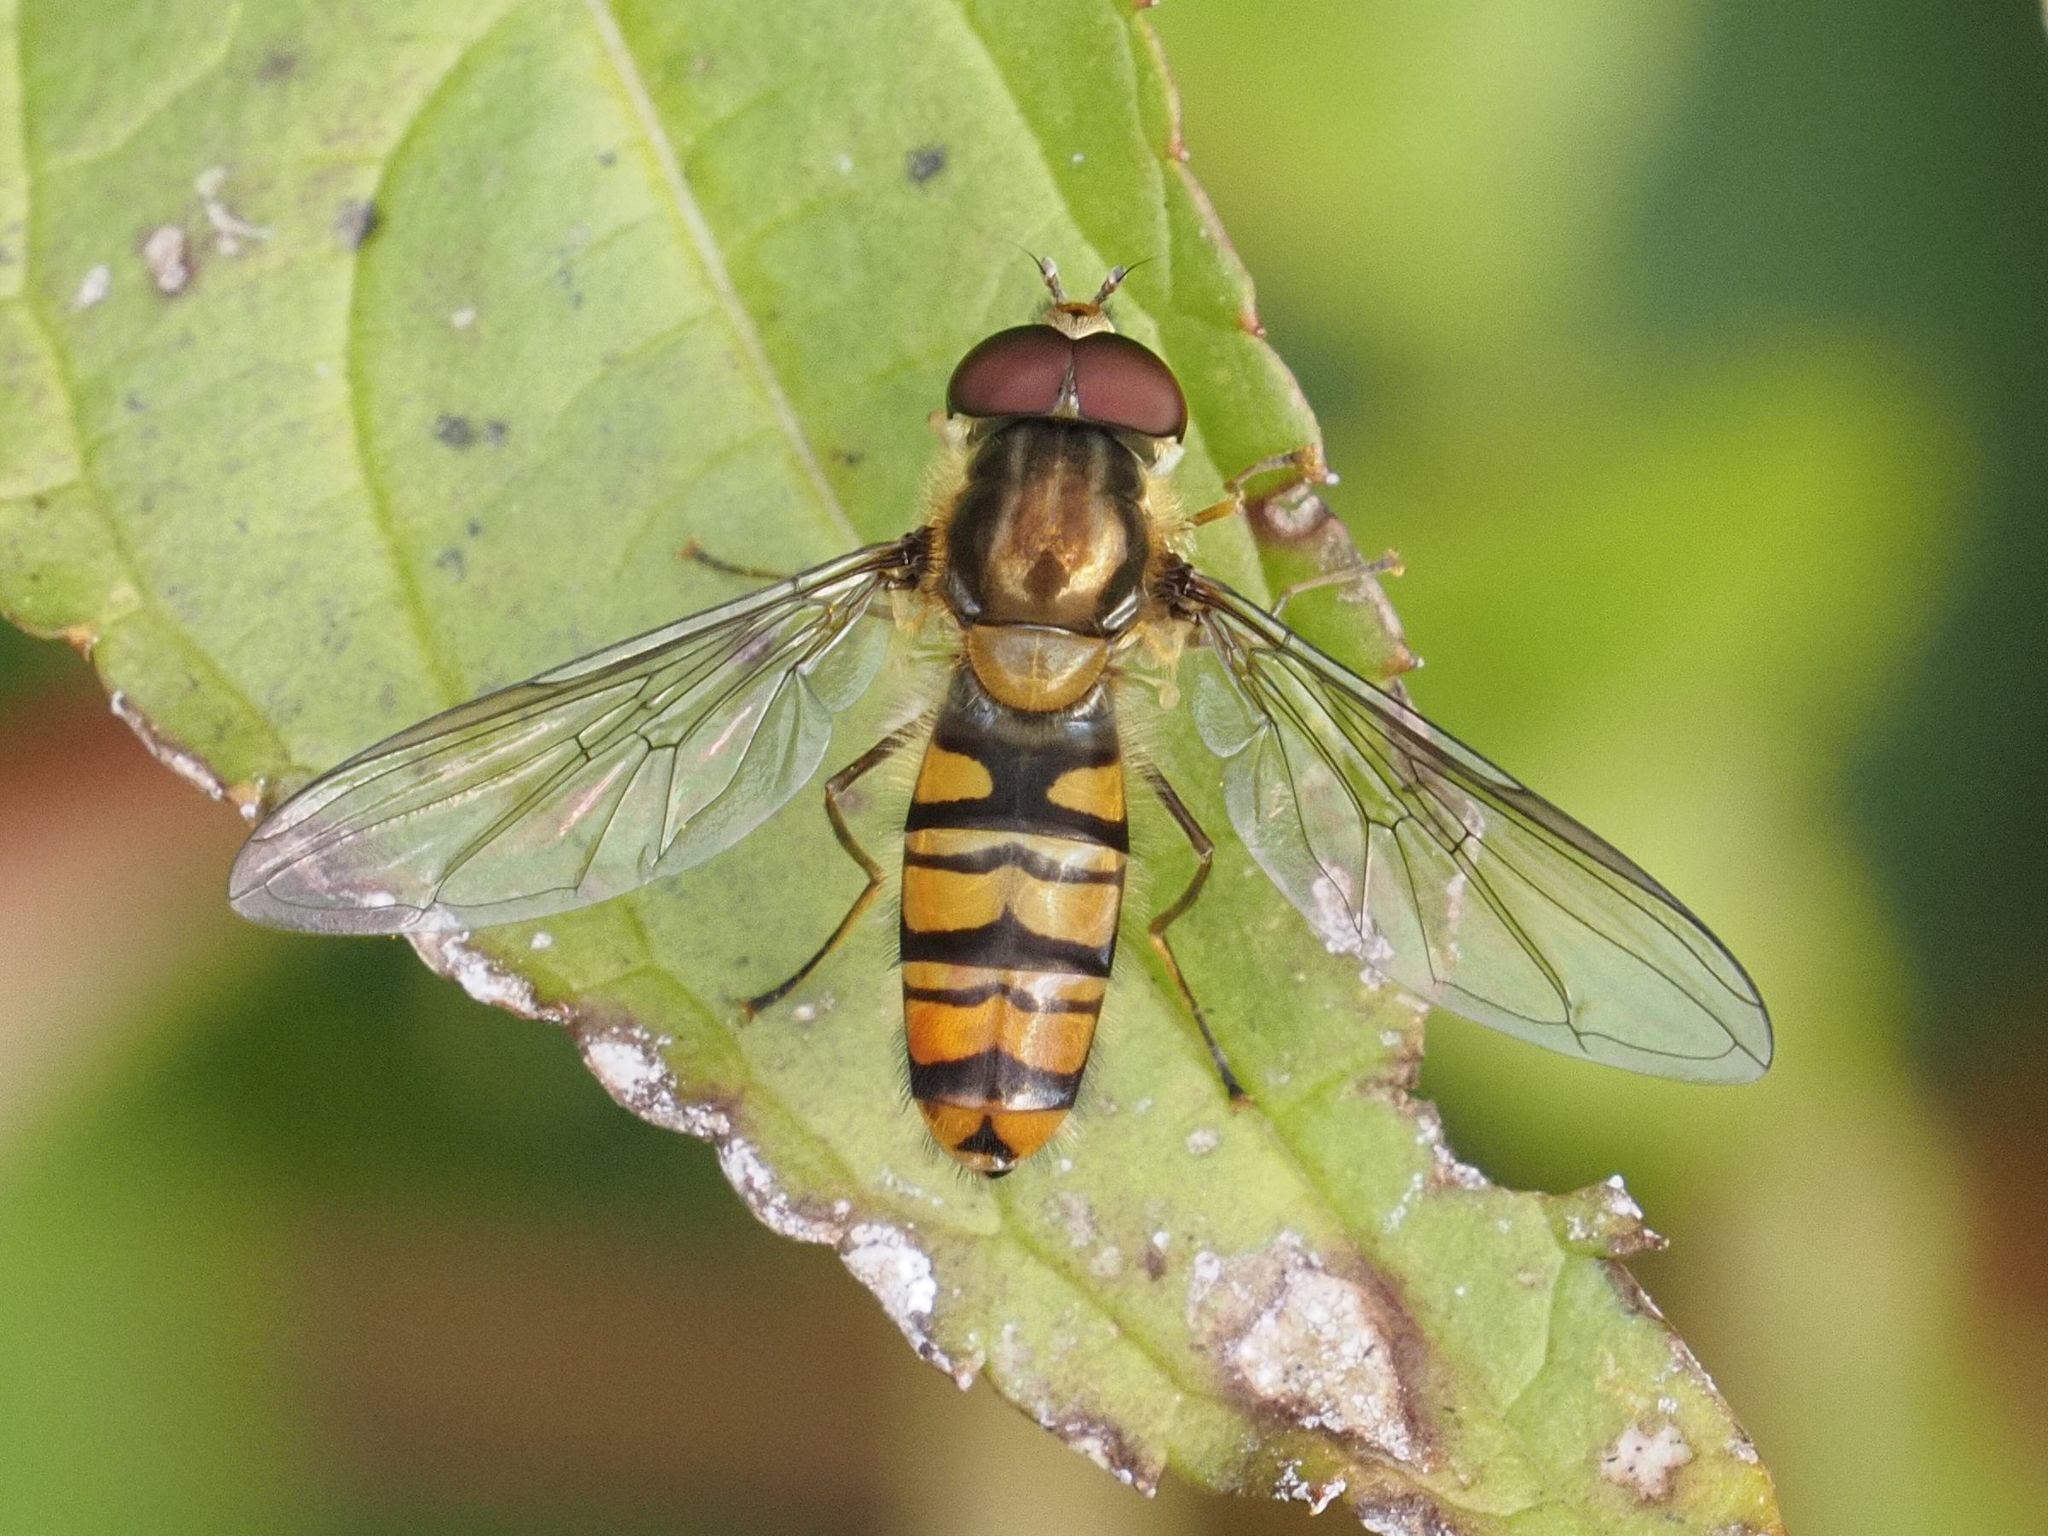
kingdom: Animalia
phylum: Arthropoda
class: Insecta
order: Diptera
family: Syrphidae
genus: Episyrphus
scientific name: Episyrphus balteatus
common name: Marmalade hoverfly
